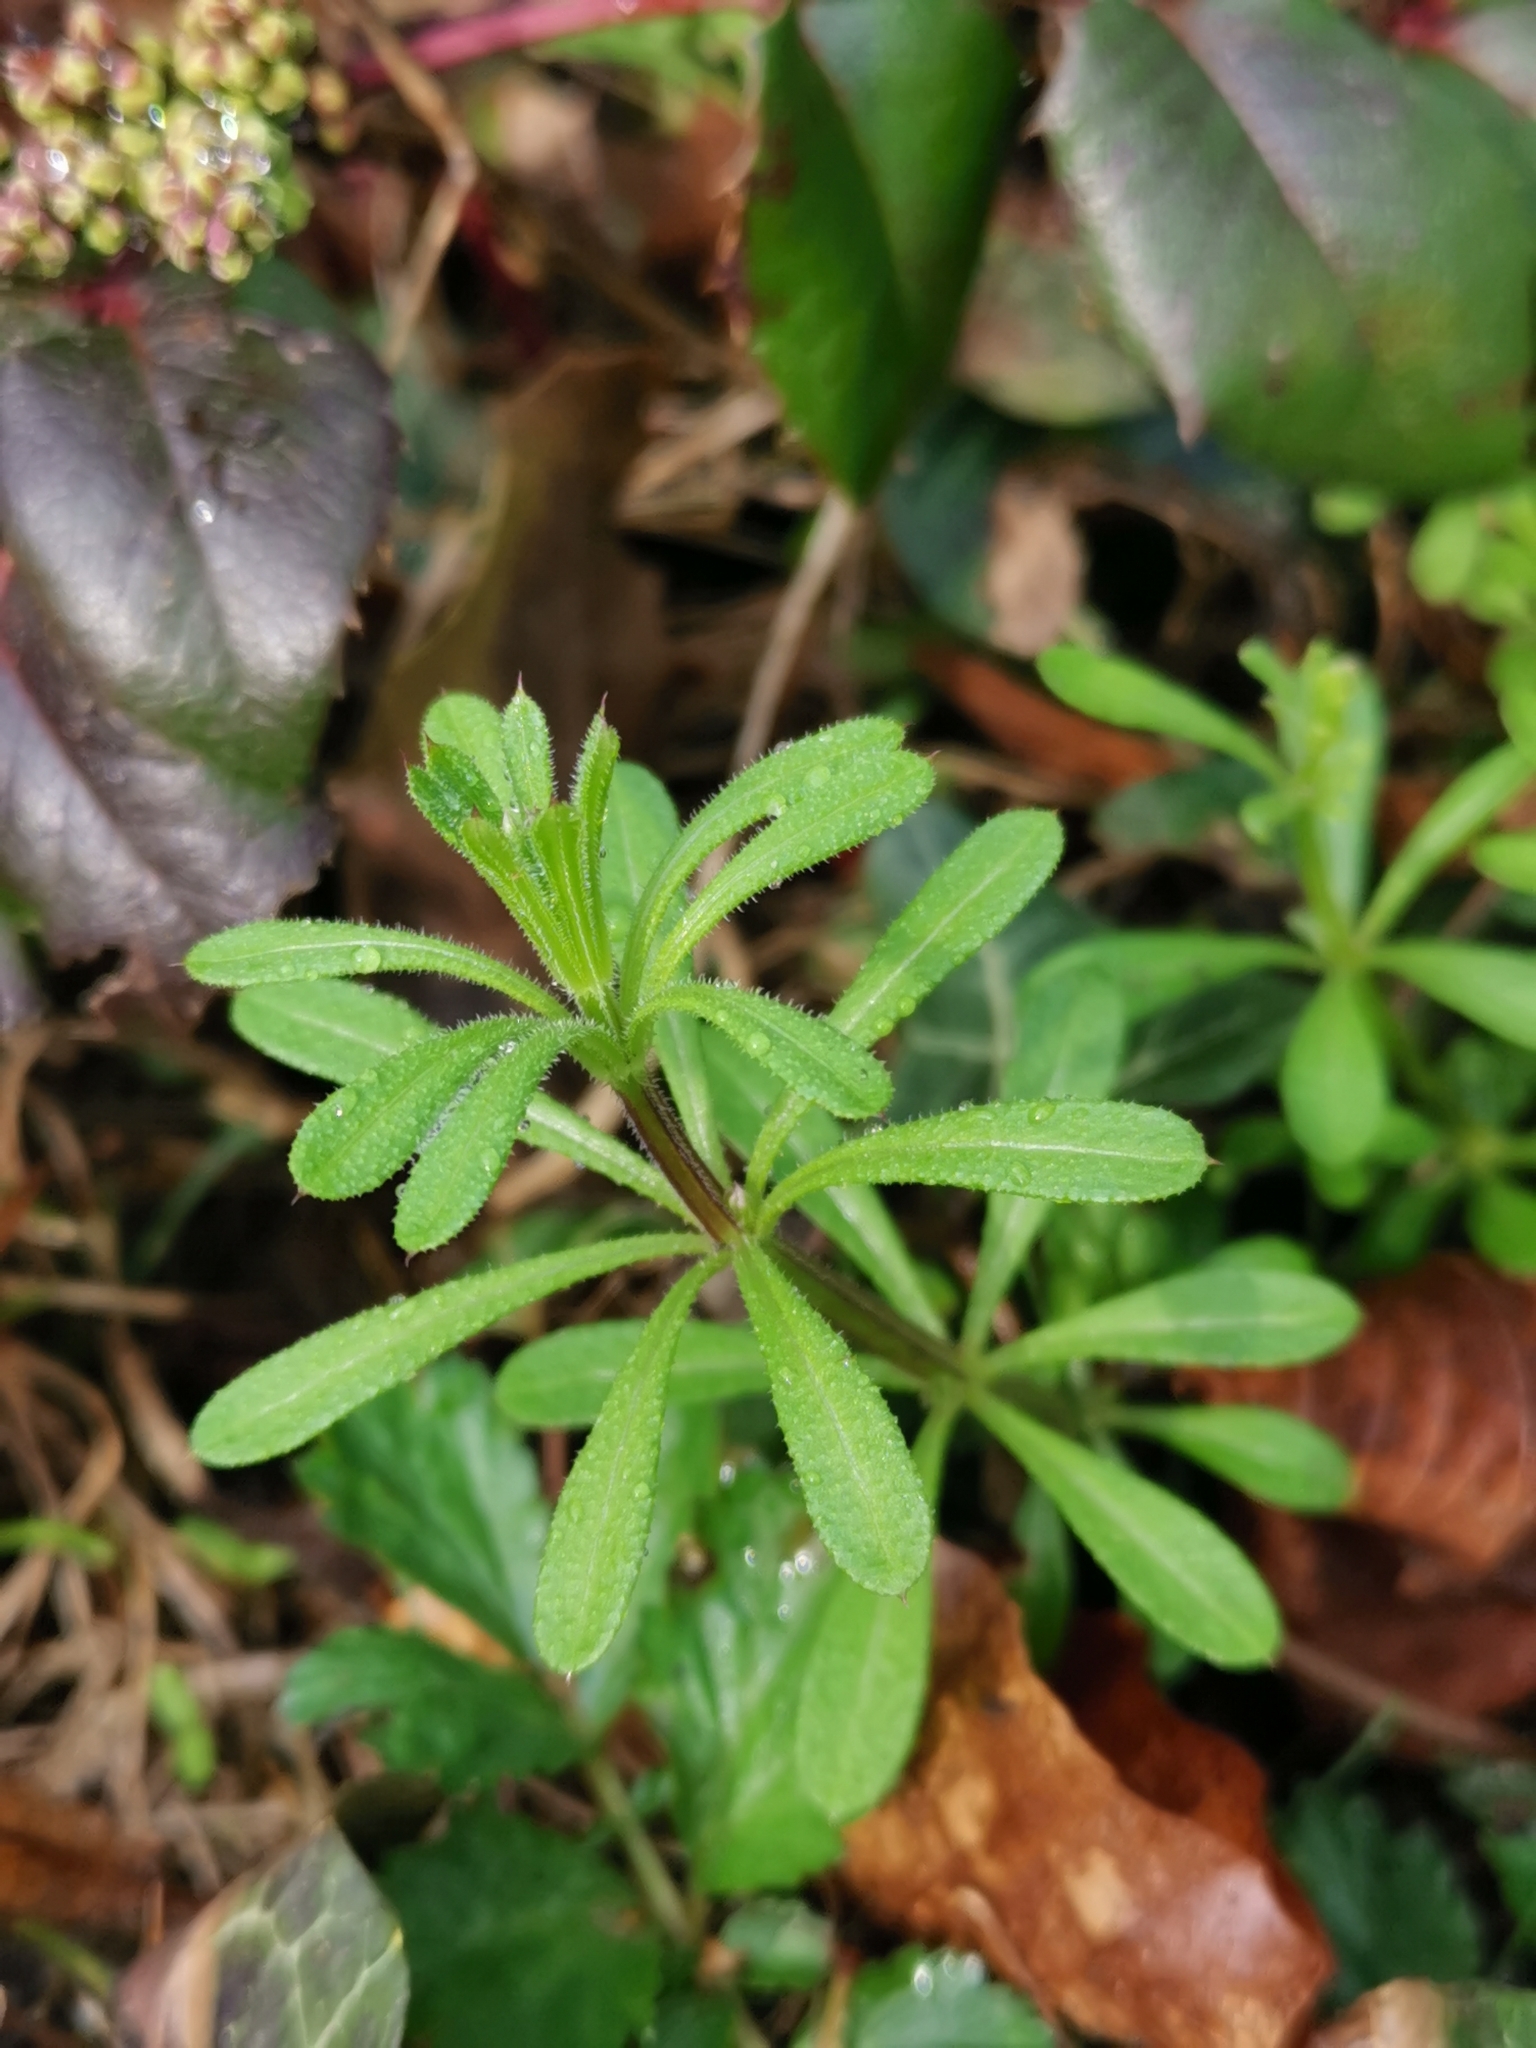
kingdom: Plantae
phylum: Tracheophyta
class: Magnoliopsida
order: Gentianales
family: Rubiaceae
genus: Galium
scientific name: Galium aparine
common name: Cleavers
